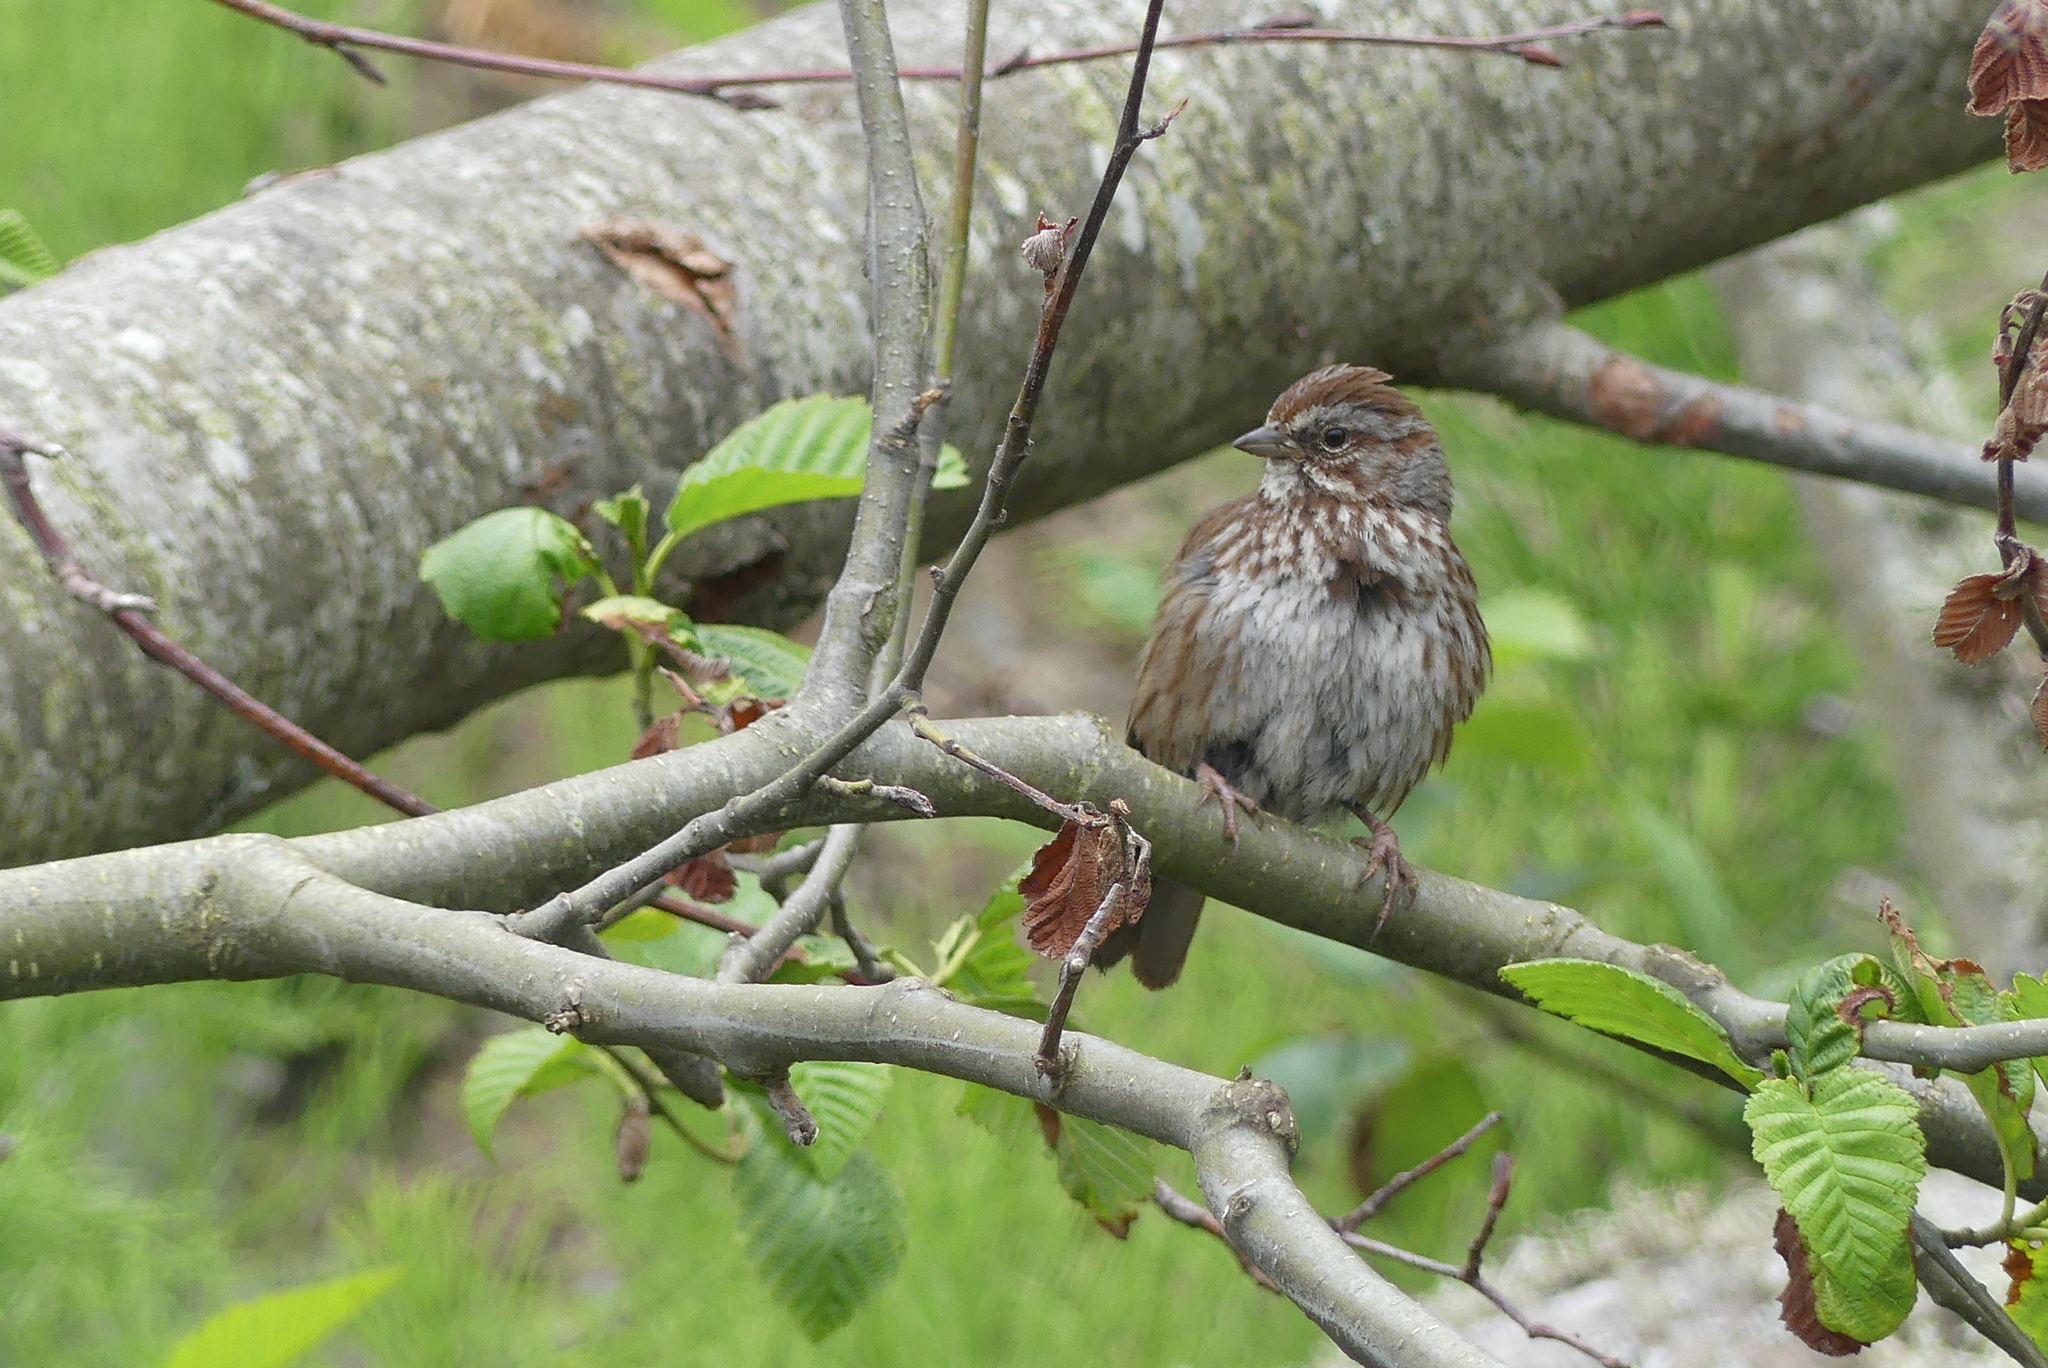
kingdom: Animalia
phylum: Chordata
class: Aves
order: Passeriformes
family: Passerellidae
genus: Melospiza
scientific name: Melospiza melodia
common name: Song sparrow
